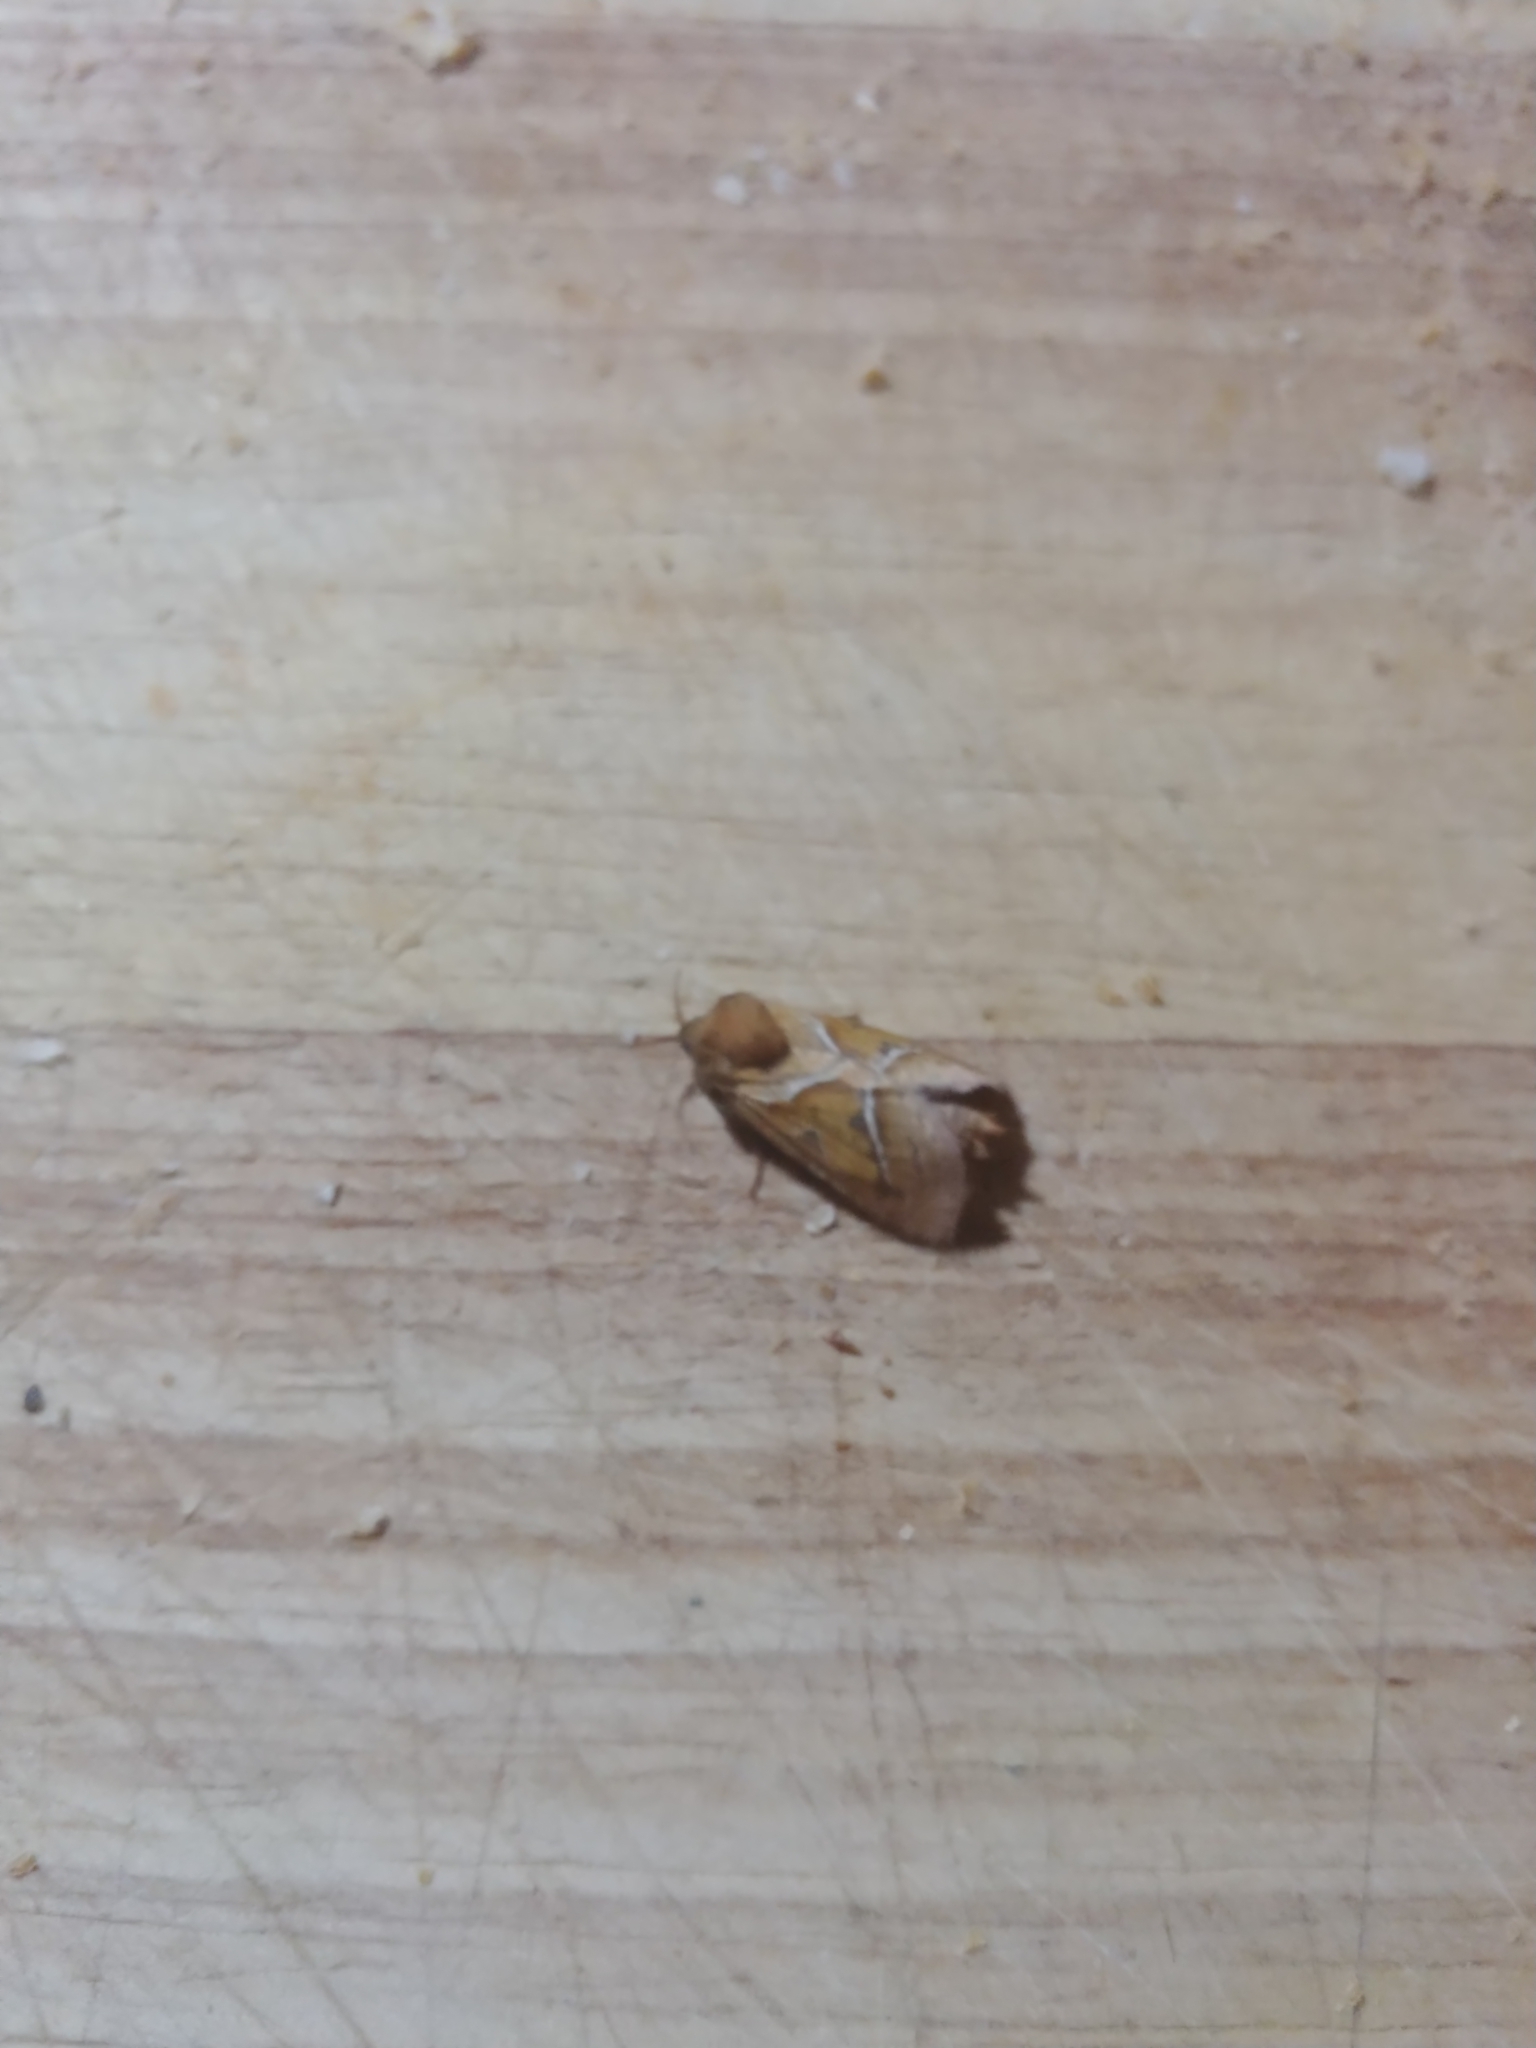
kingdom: Animalia
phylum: Arthropoda
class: Insecta
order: Lepidoptera
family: Hepialidae
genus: Triodia
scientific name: Triodia sylvina
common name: Orange swift
